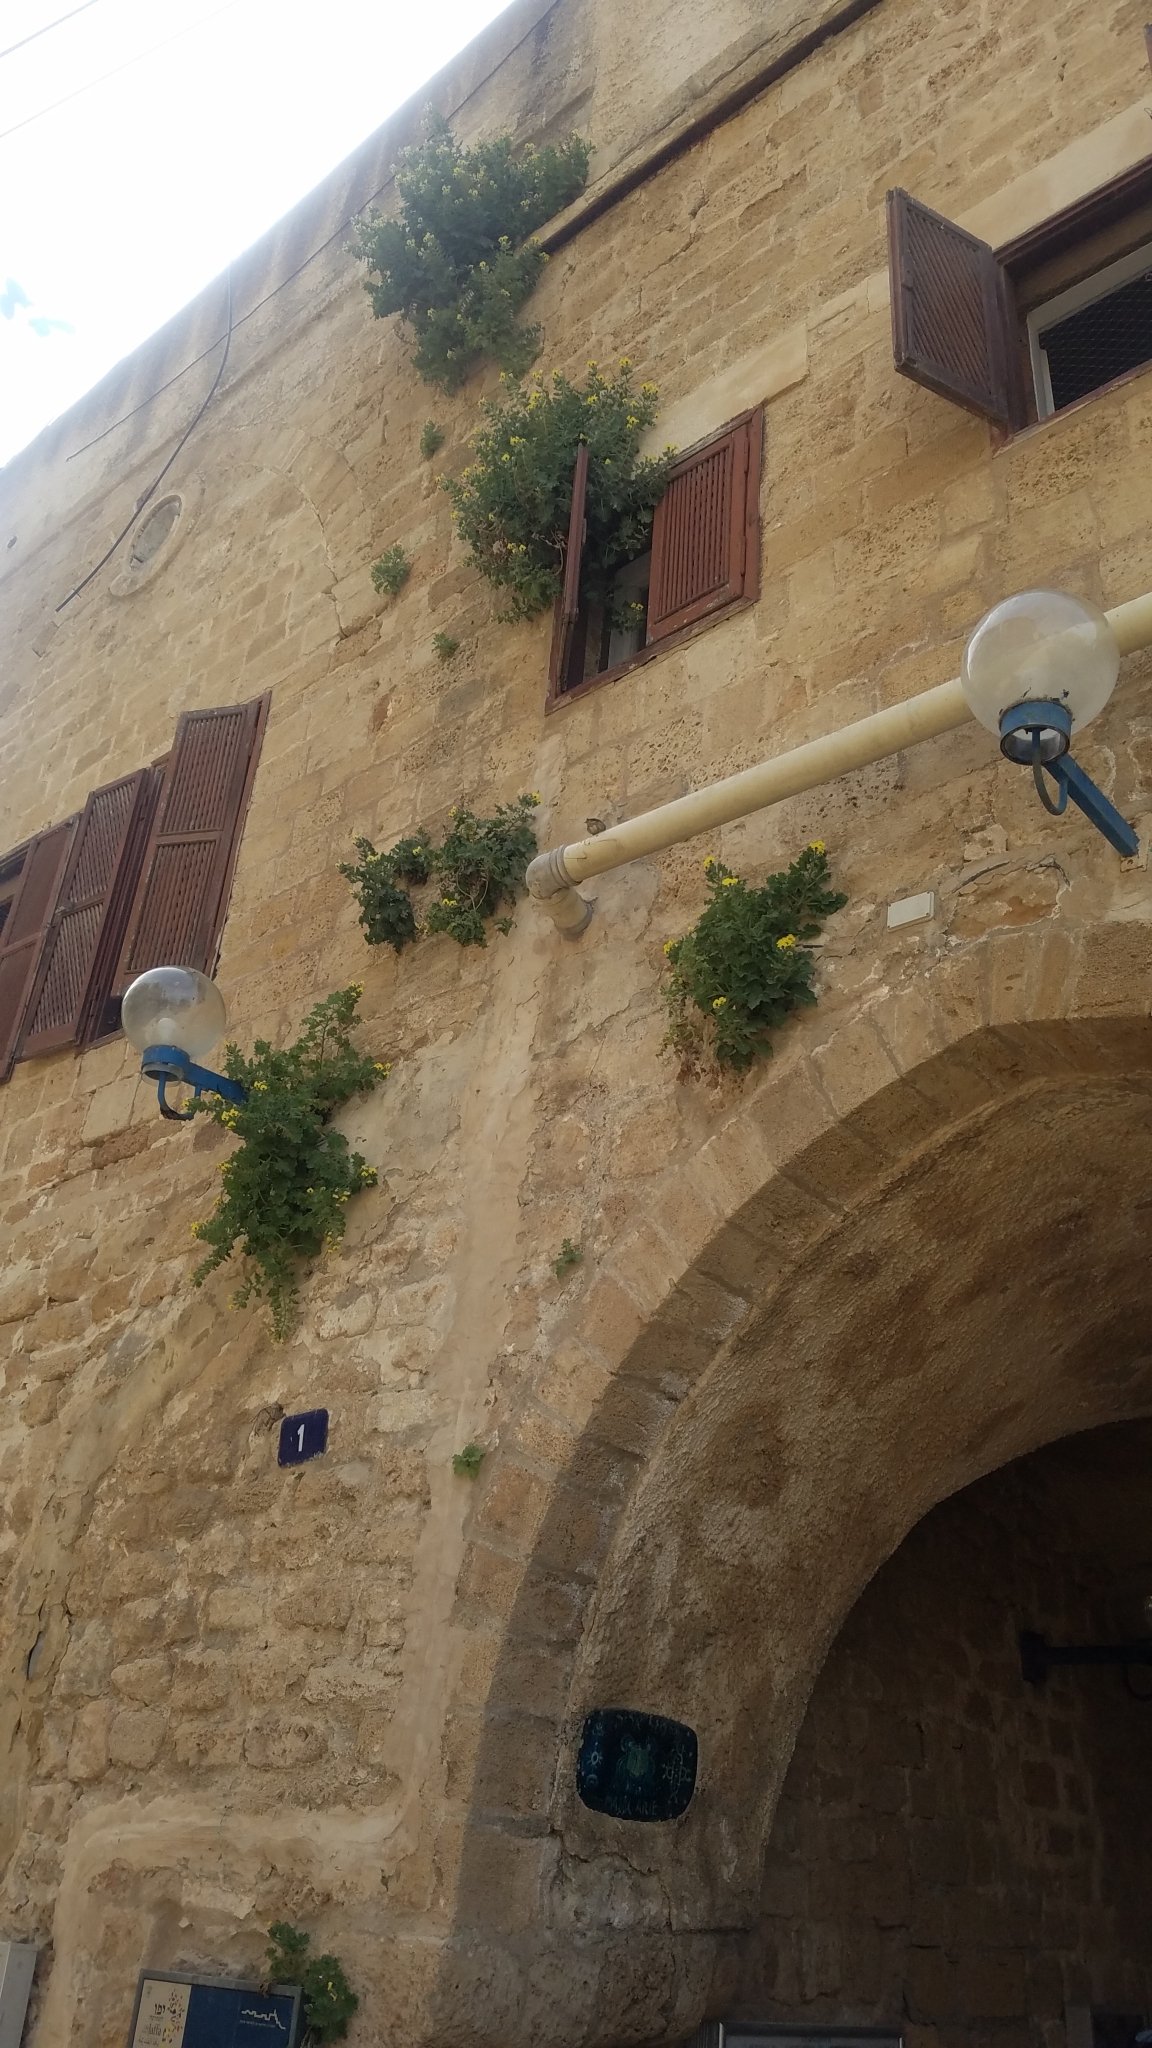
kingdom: Plantae
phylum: Tracheophyta
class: Magnoliopsida
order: Solanales
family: Solanaceae
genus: Hyoscyamus
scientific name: Hyoscyamus aureus
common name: Golden henbane
